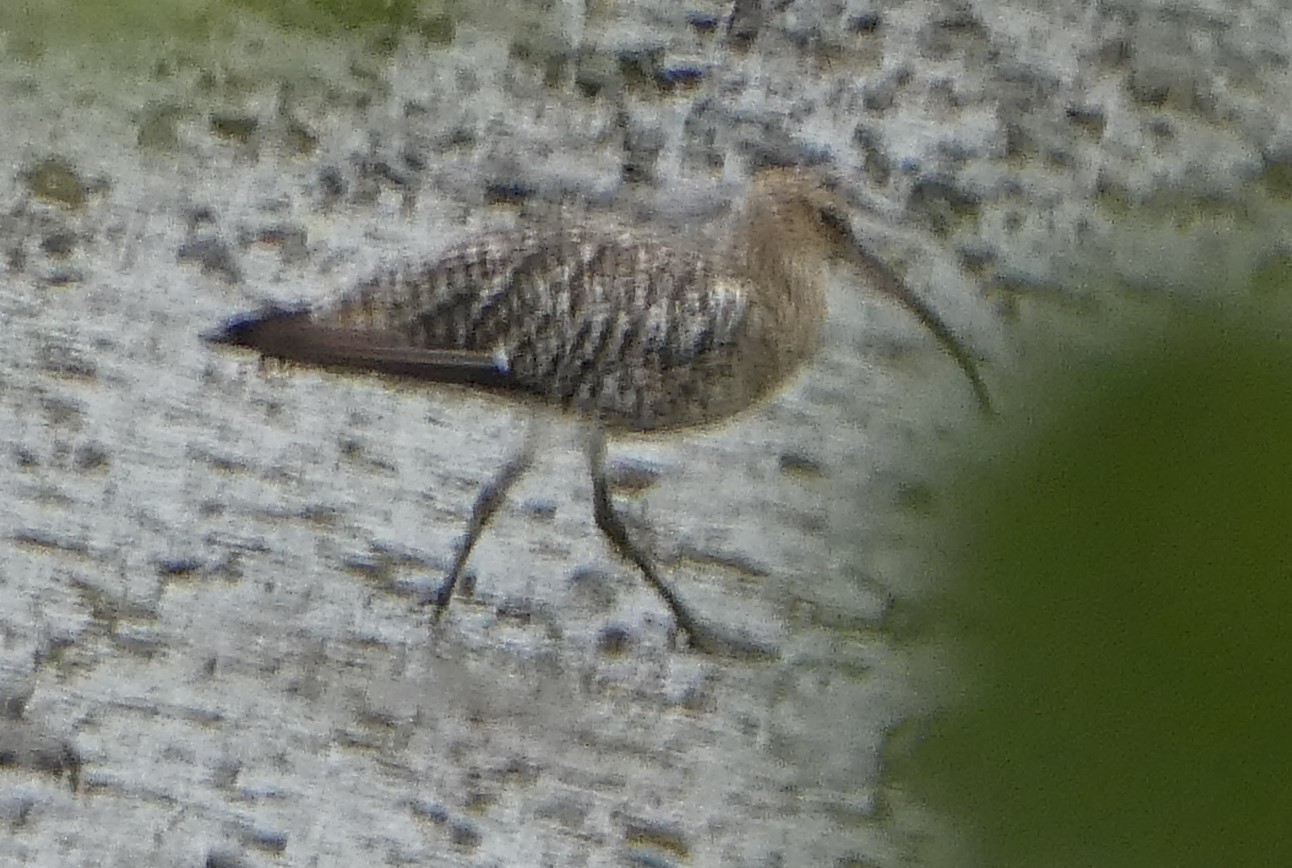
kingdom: Animalia
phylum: Chordata
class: Aves
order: Charadriiformes
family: Scolopacidae
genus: Numenius
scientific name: Numenius arquata
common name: Eurasian curlew
